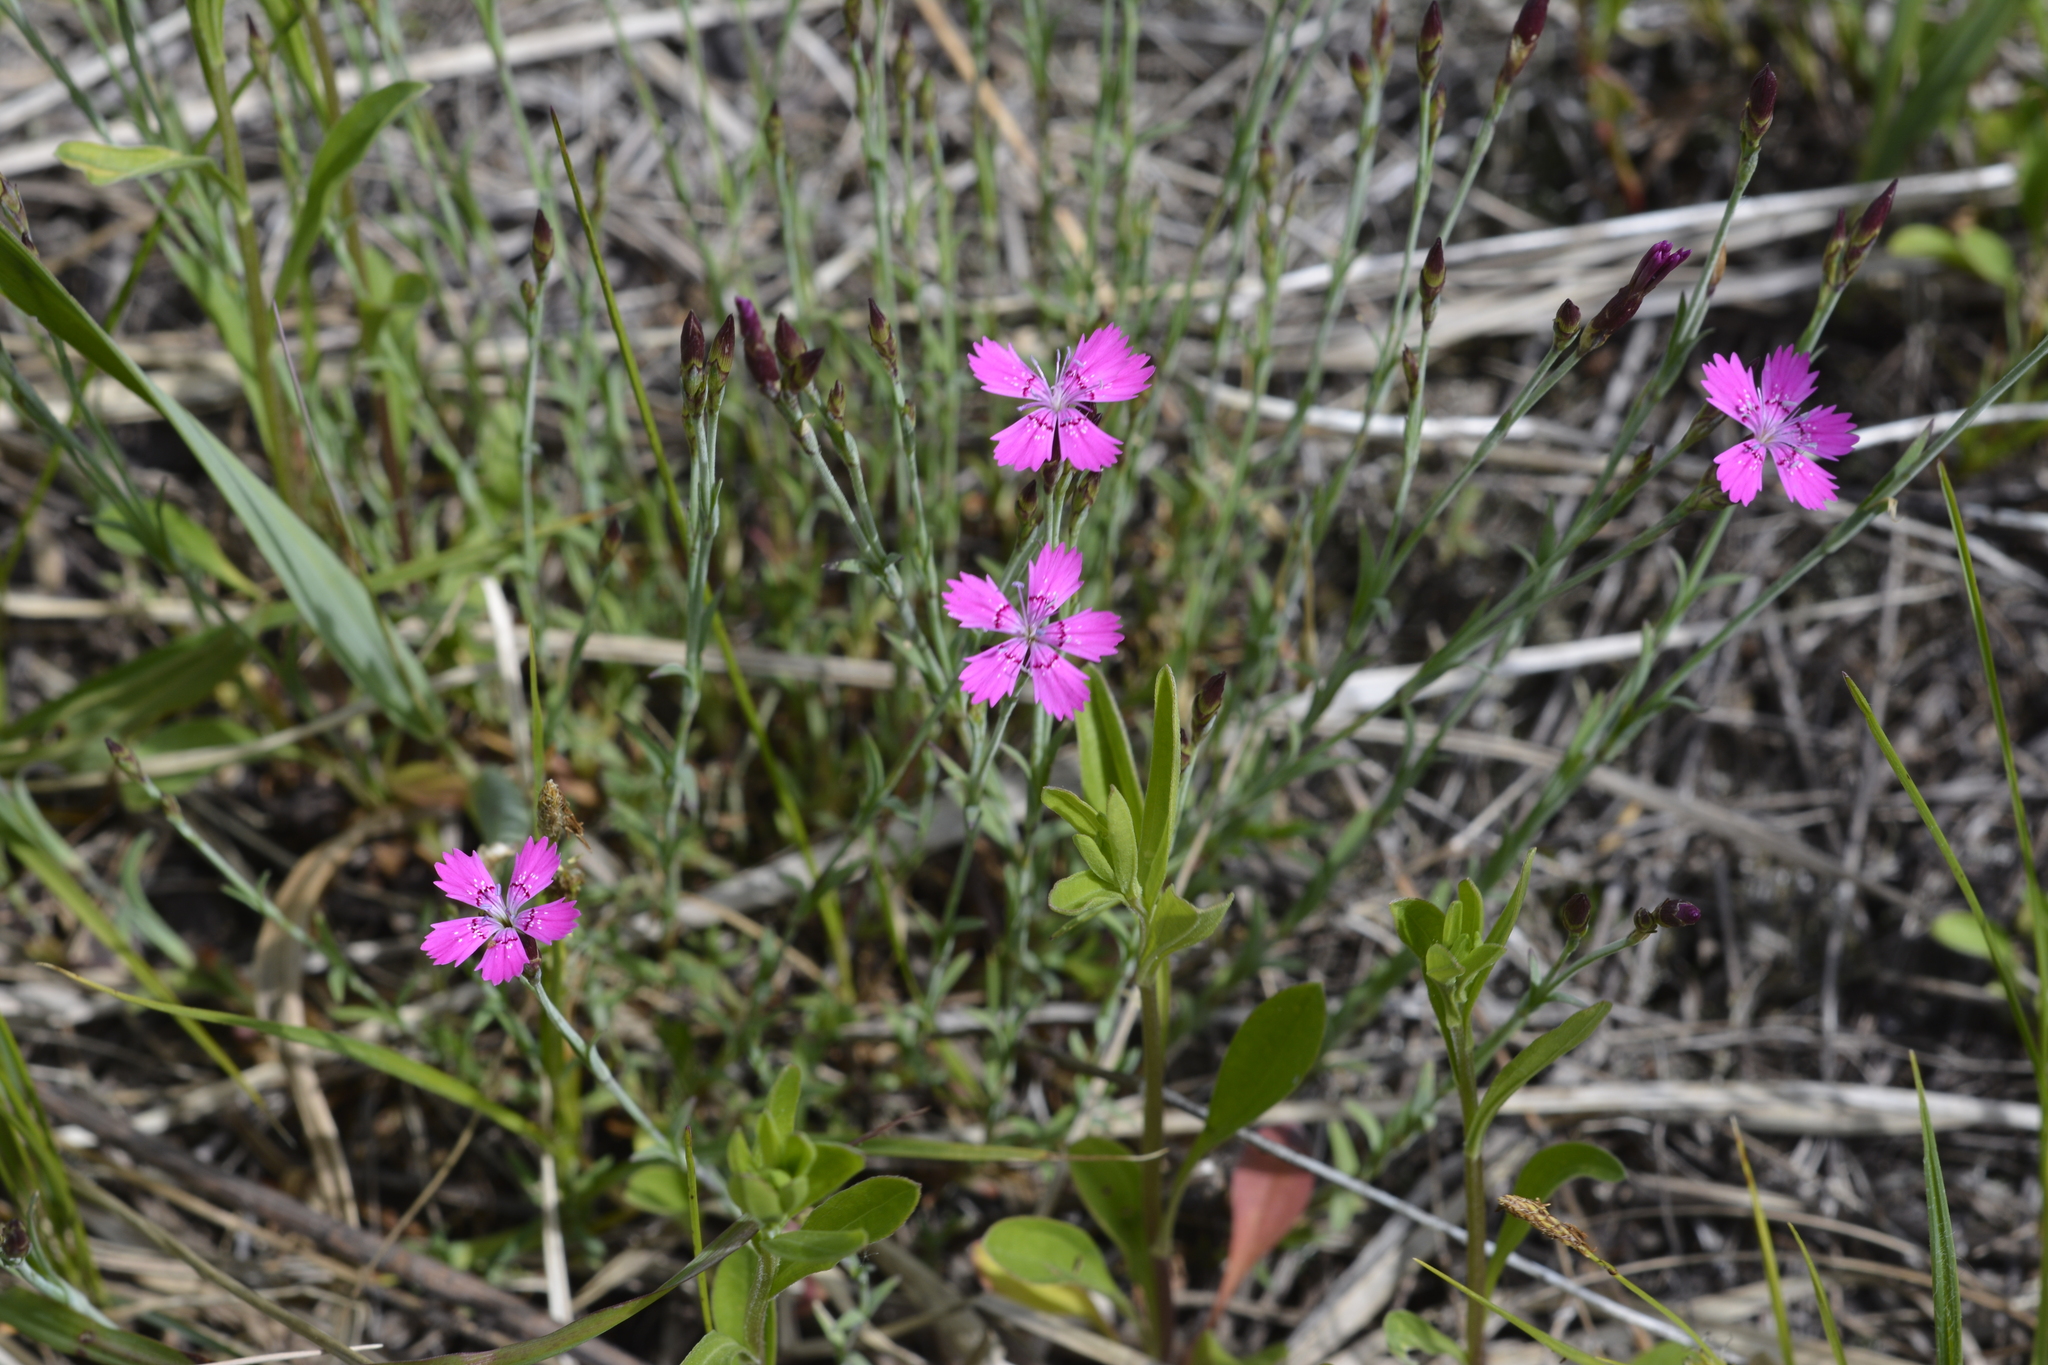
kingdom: Plantae
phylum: Tracheophyta
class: Magnoliopsida
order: Caryophyllales
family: Caryophyllaceae
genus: Dianthus
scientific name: Dianthus deltoides
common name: Maiden pink
